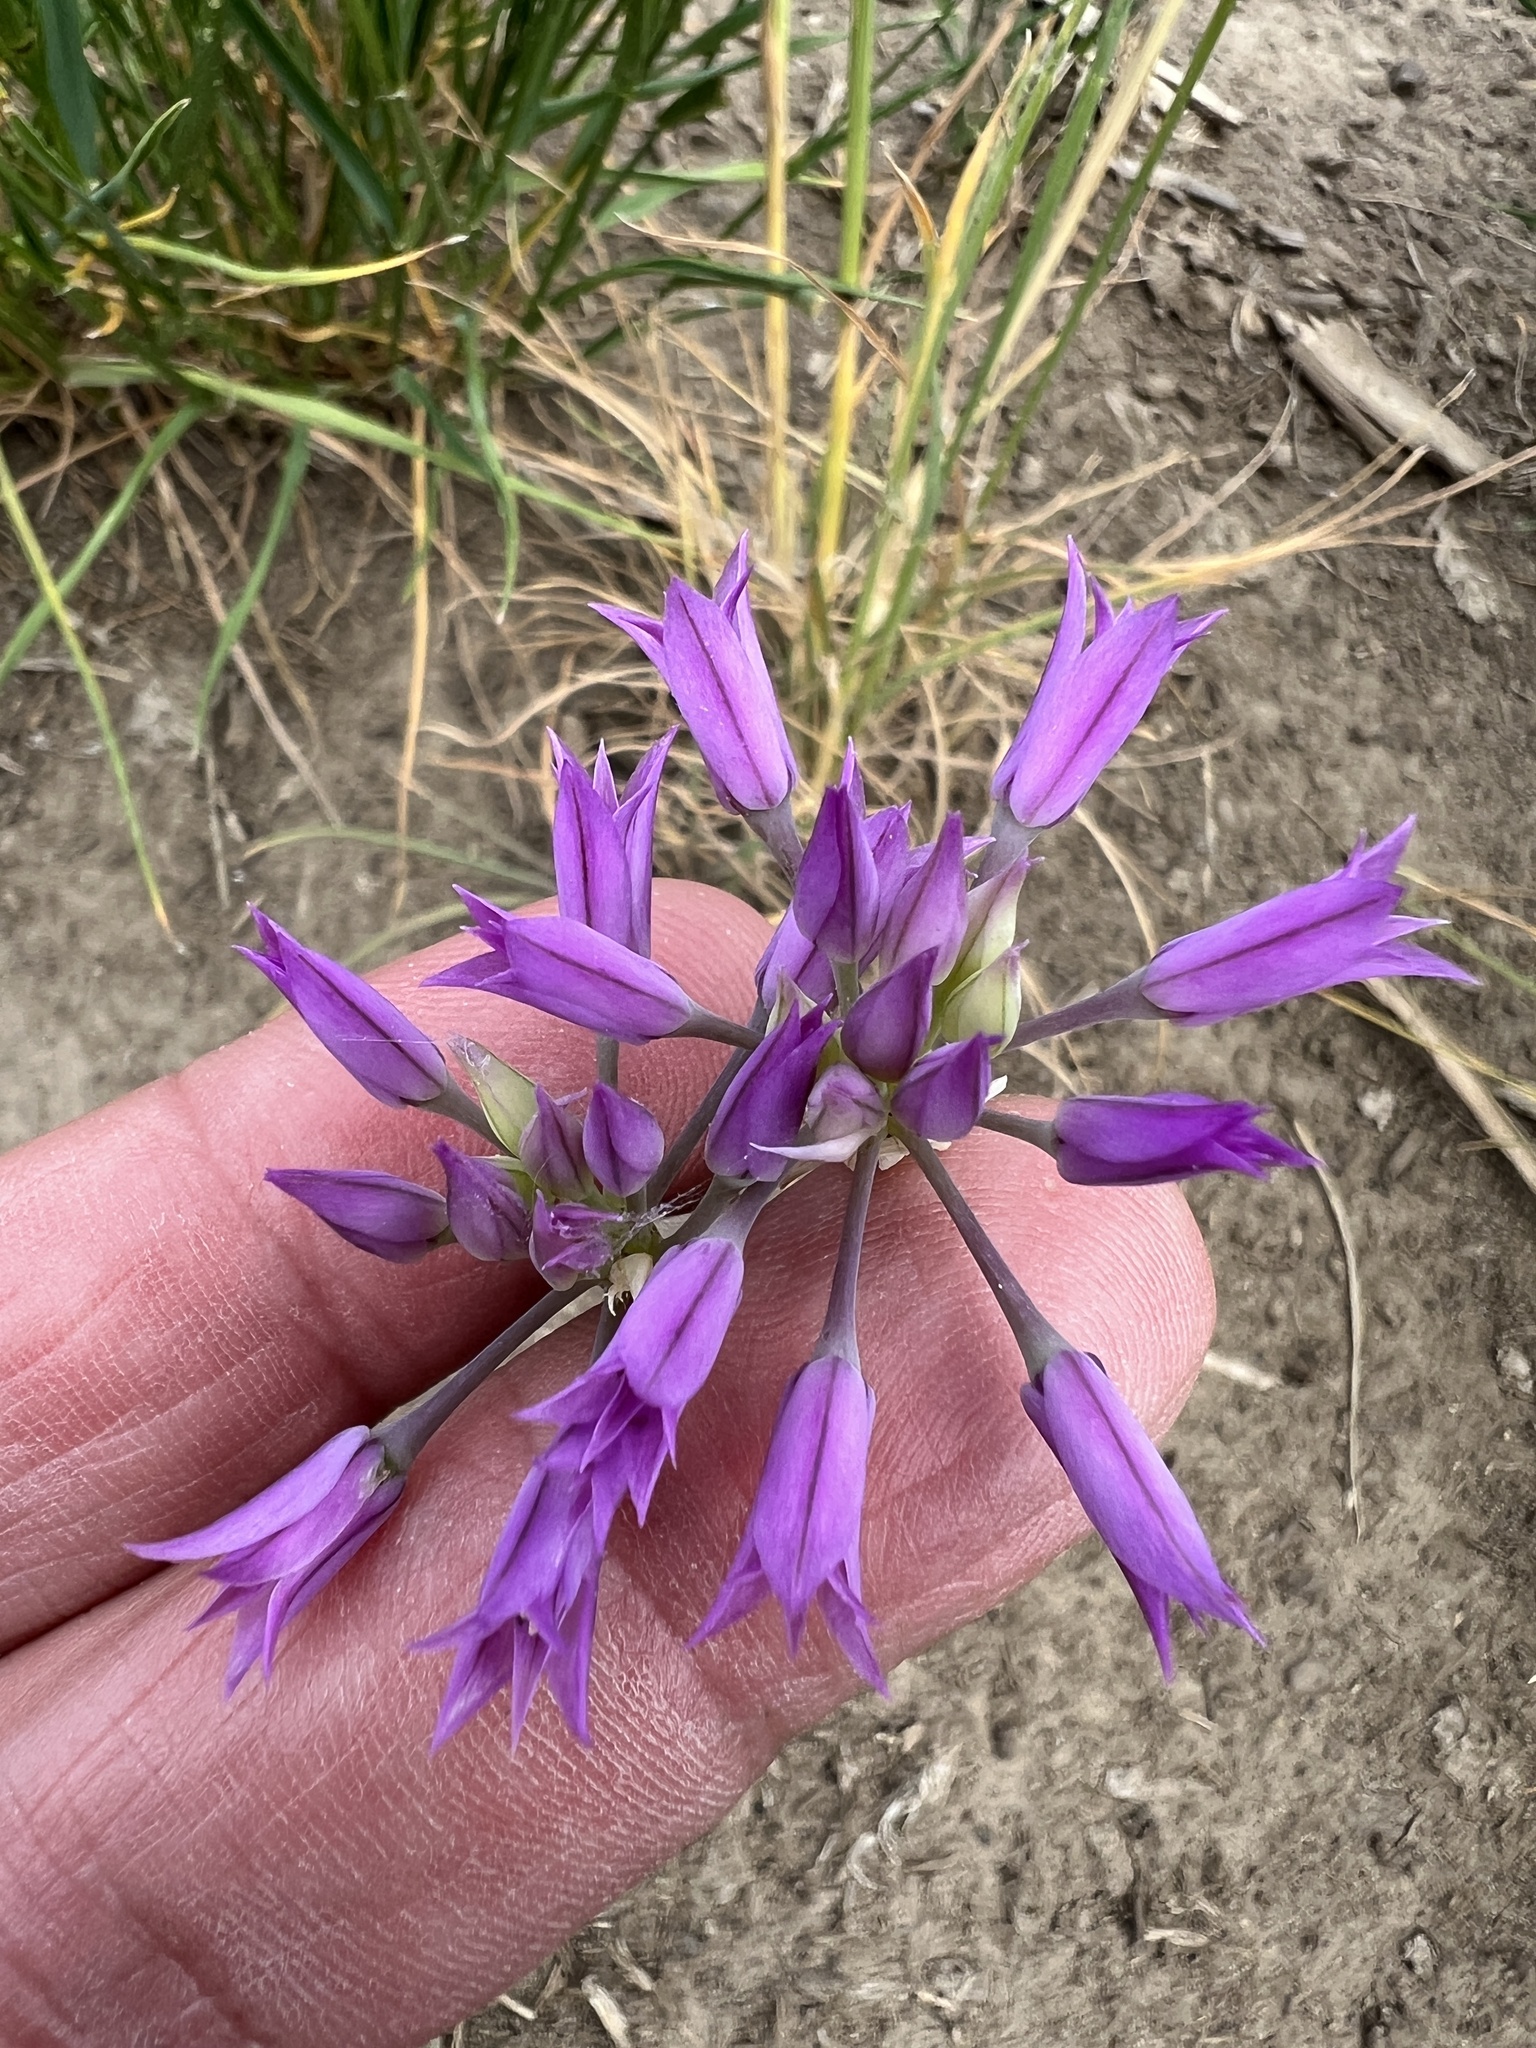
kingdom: Plantae
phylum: Tracheophyta
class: Liliopsida
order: Asparagales
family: Amaryllidaceae
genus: Allium
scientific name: Allium acuminatum
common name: Hooker's onion
